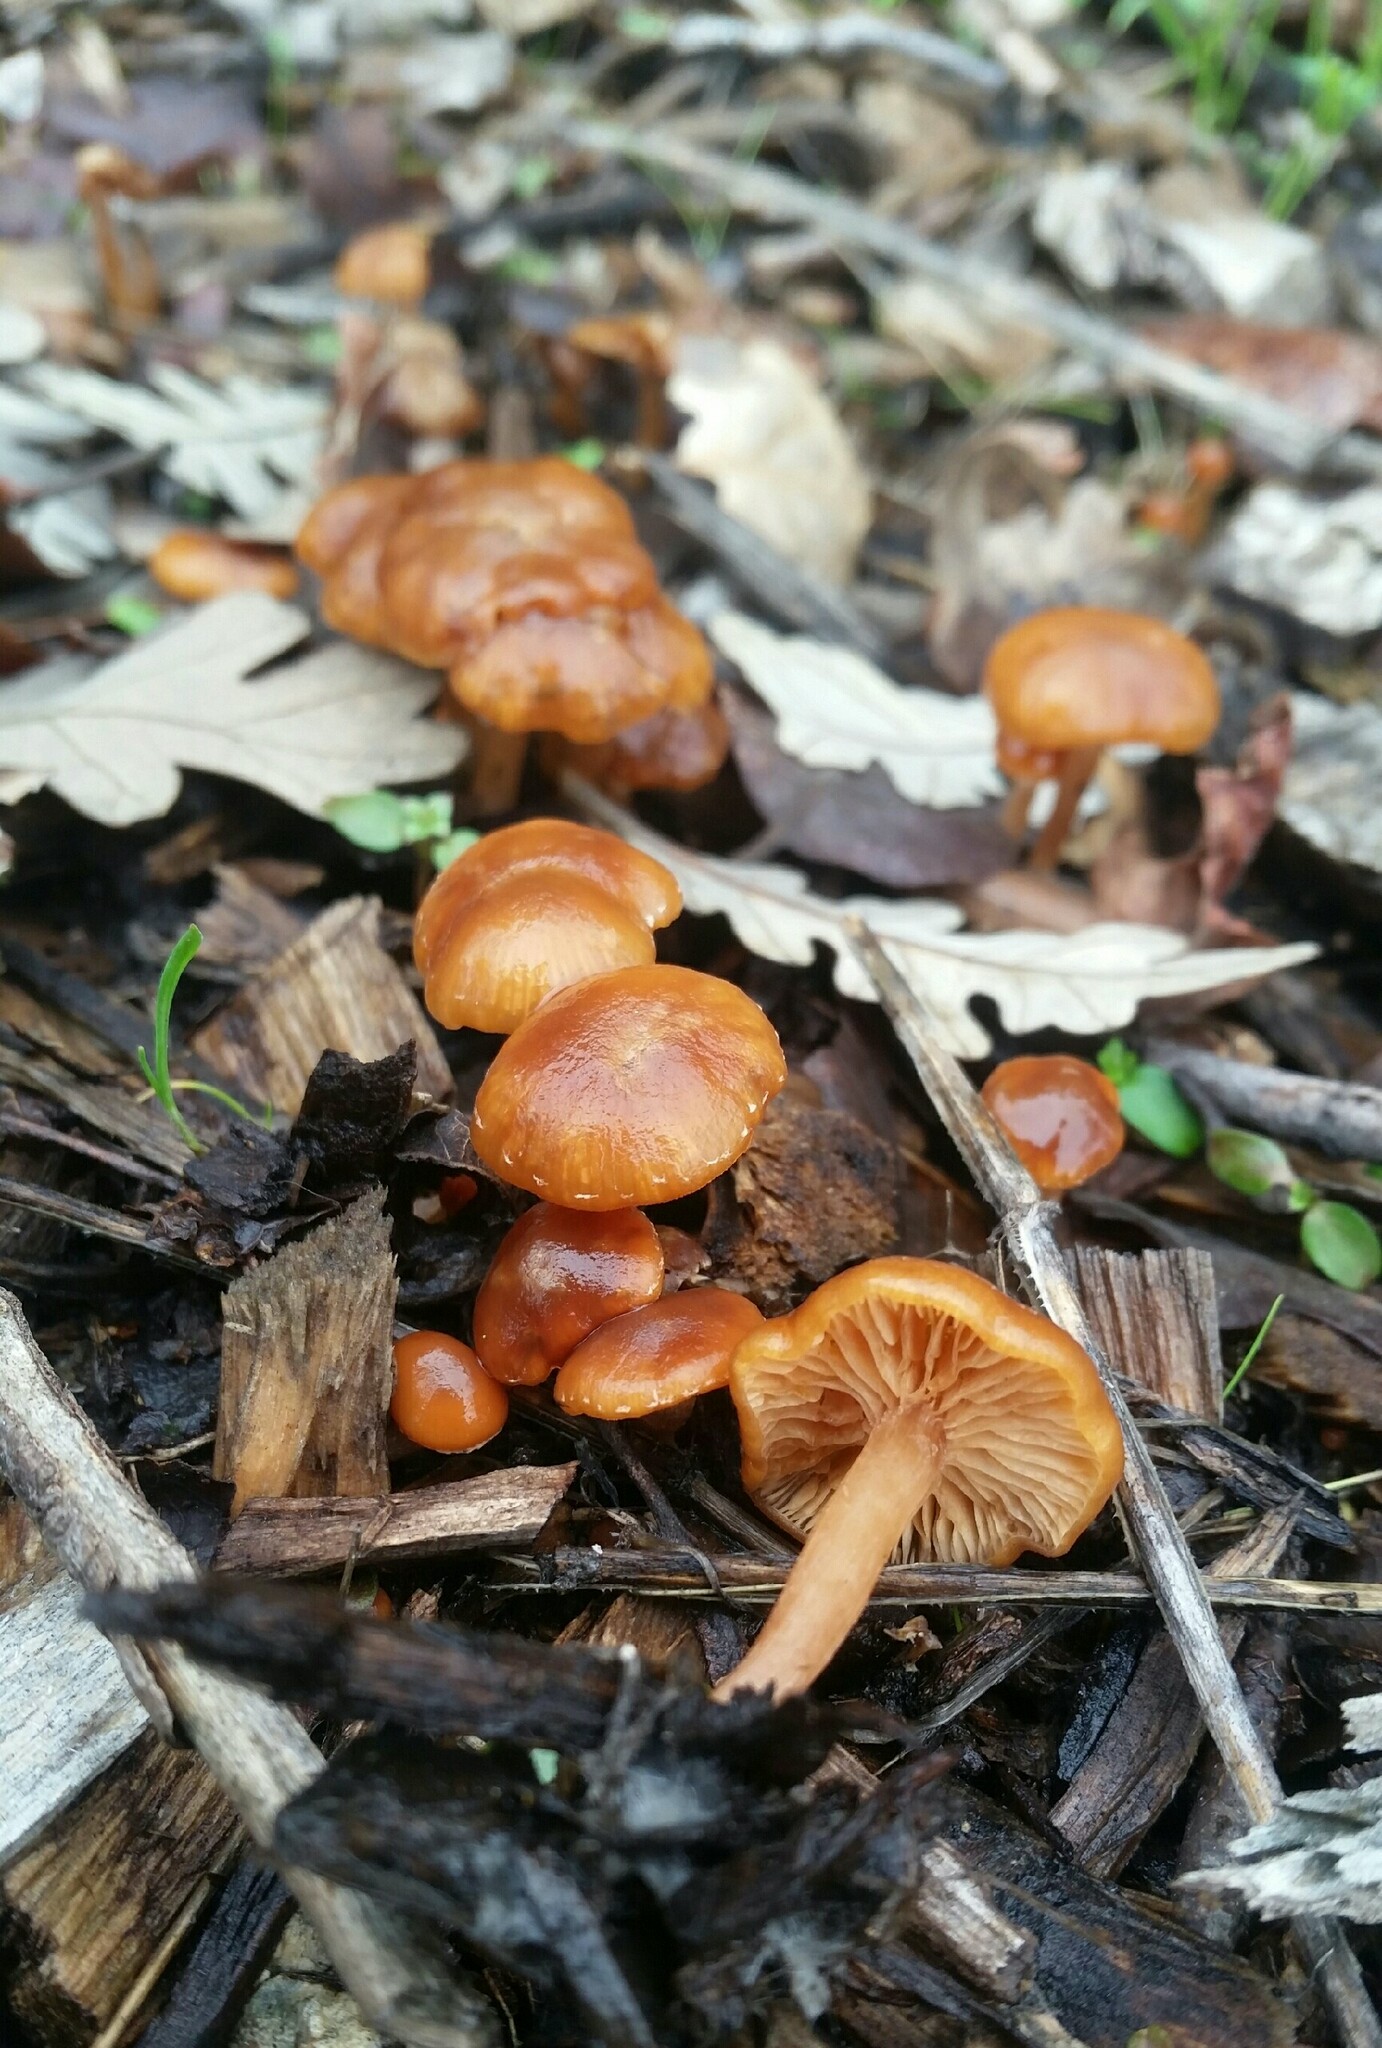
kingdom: Fungi
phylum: Basidiomycota
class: Agaricomycetes
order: Agaricales
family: Tubariaceae
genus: Tubaria
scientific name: Tubaria furfuracea
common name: Scurfy twiglet
